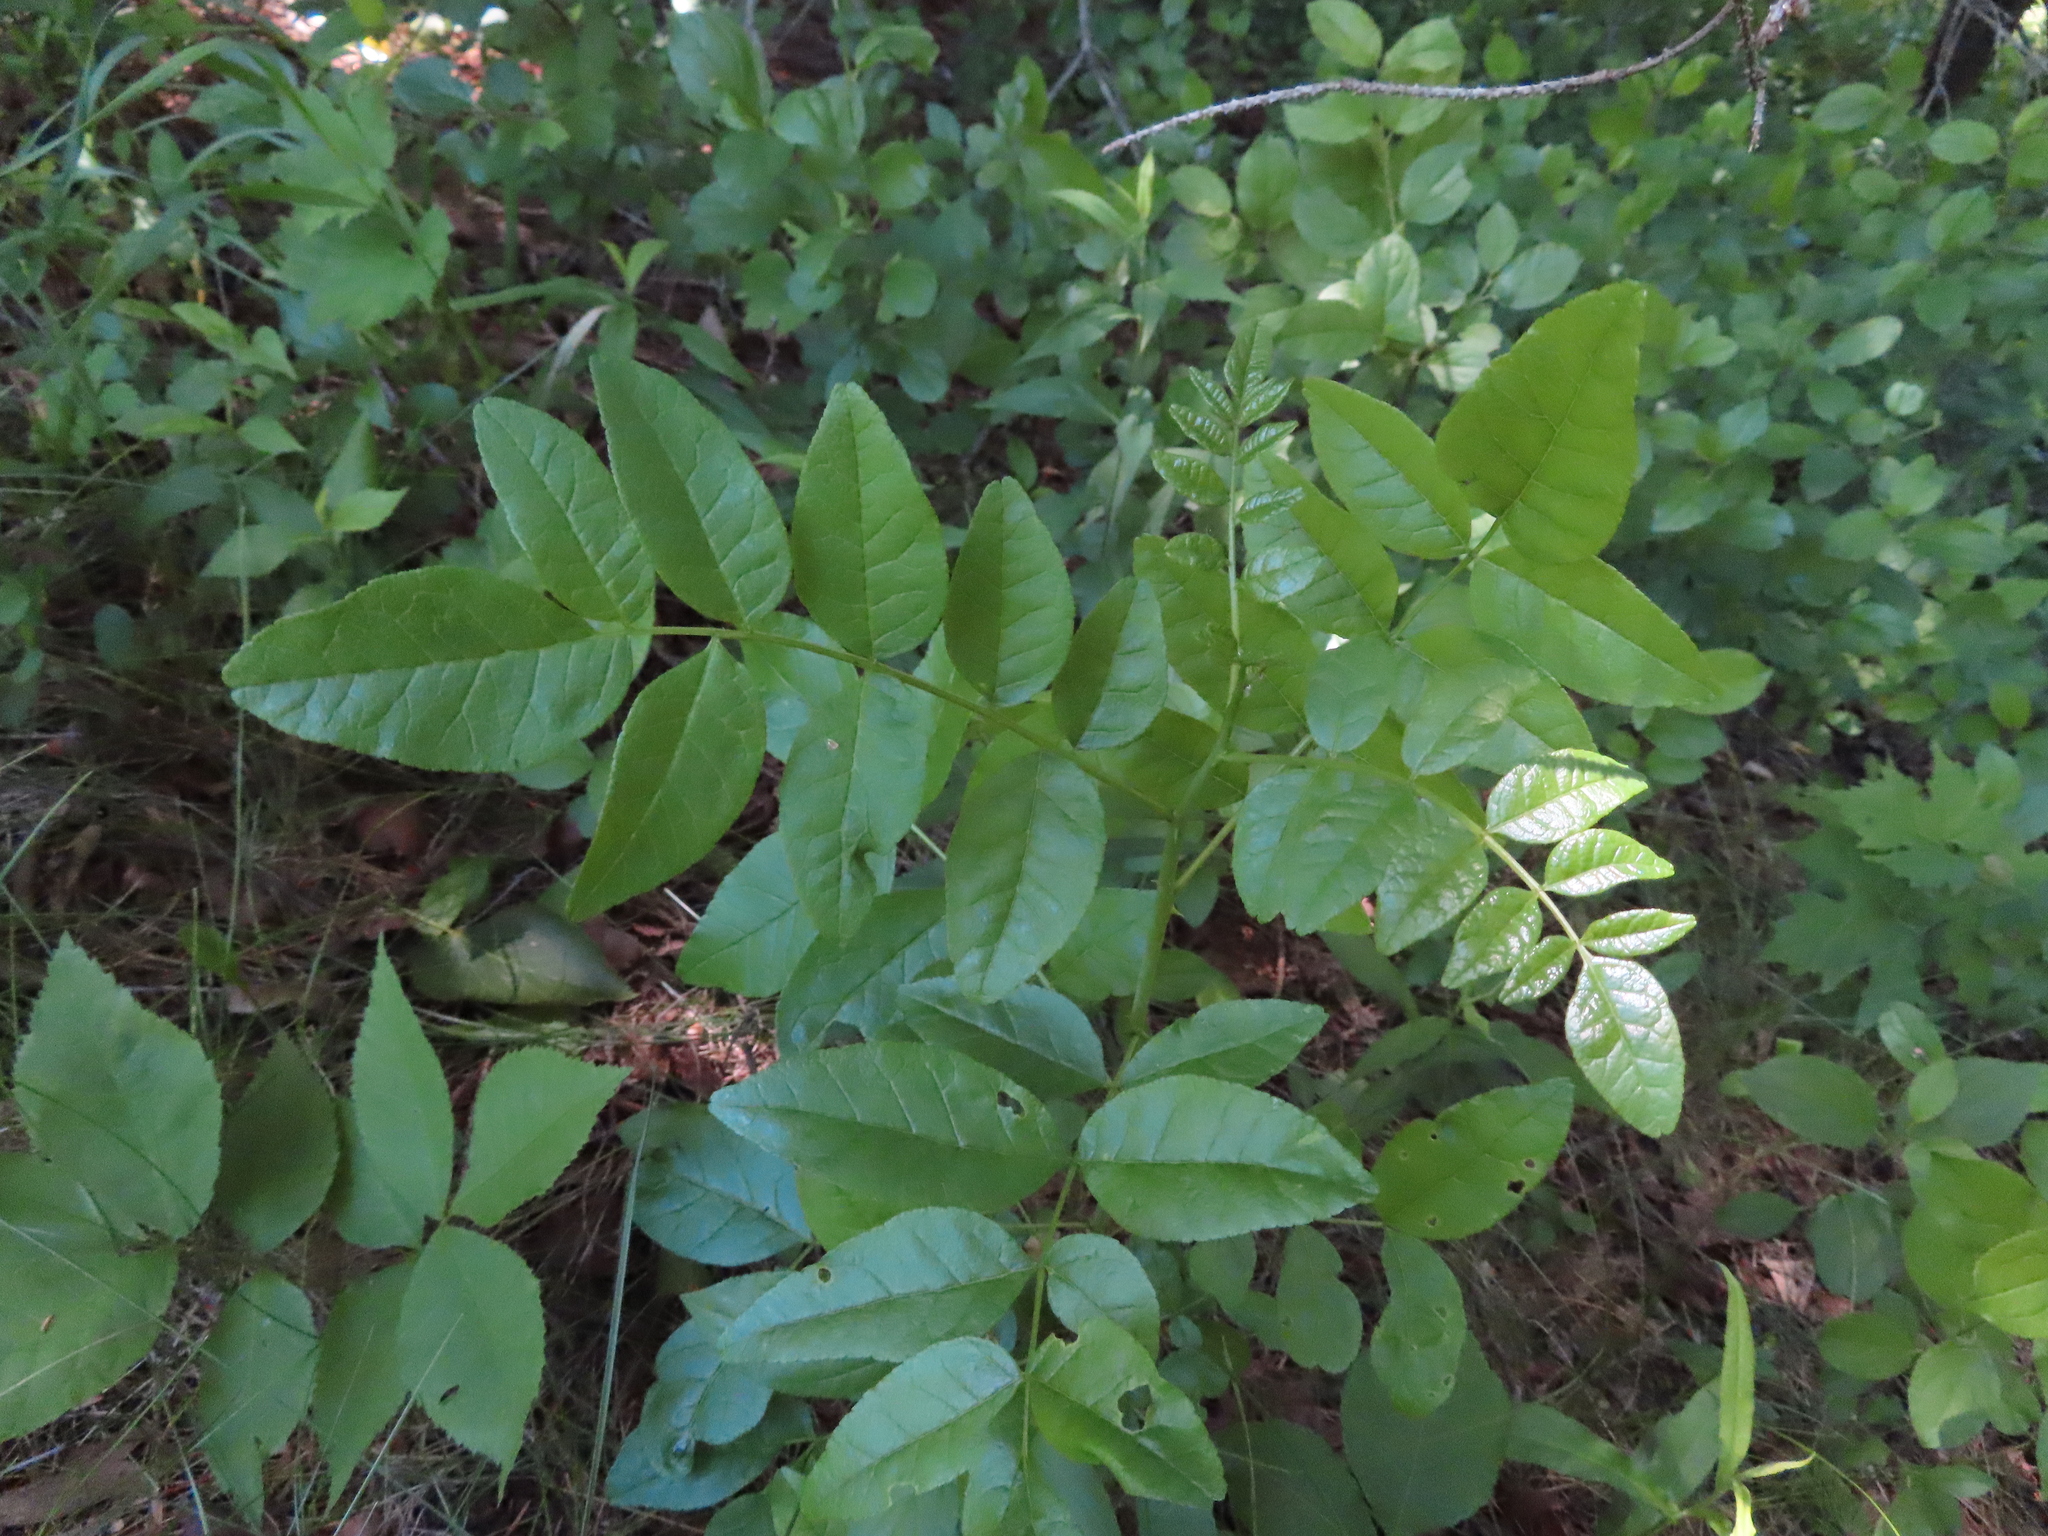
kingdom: Plantae
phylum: Tracheophyta
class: Magnoliopsida
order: Sapindales
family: Rutaceae
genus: Zanthoxylum
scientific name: Zanthoxylum americanum
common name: Northern prickly-ash
